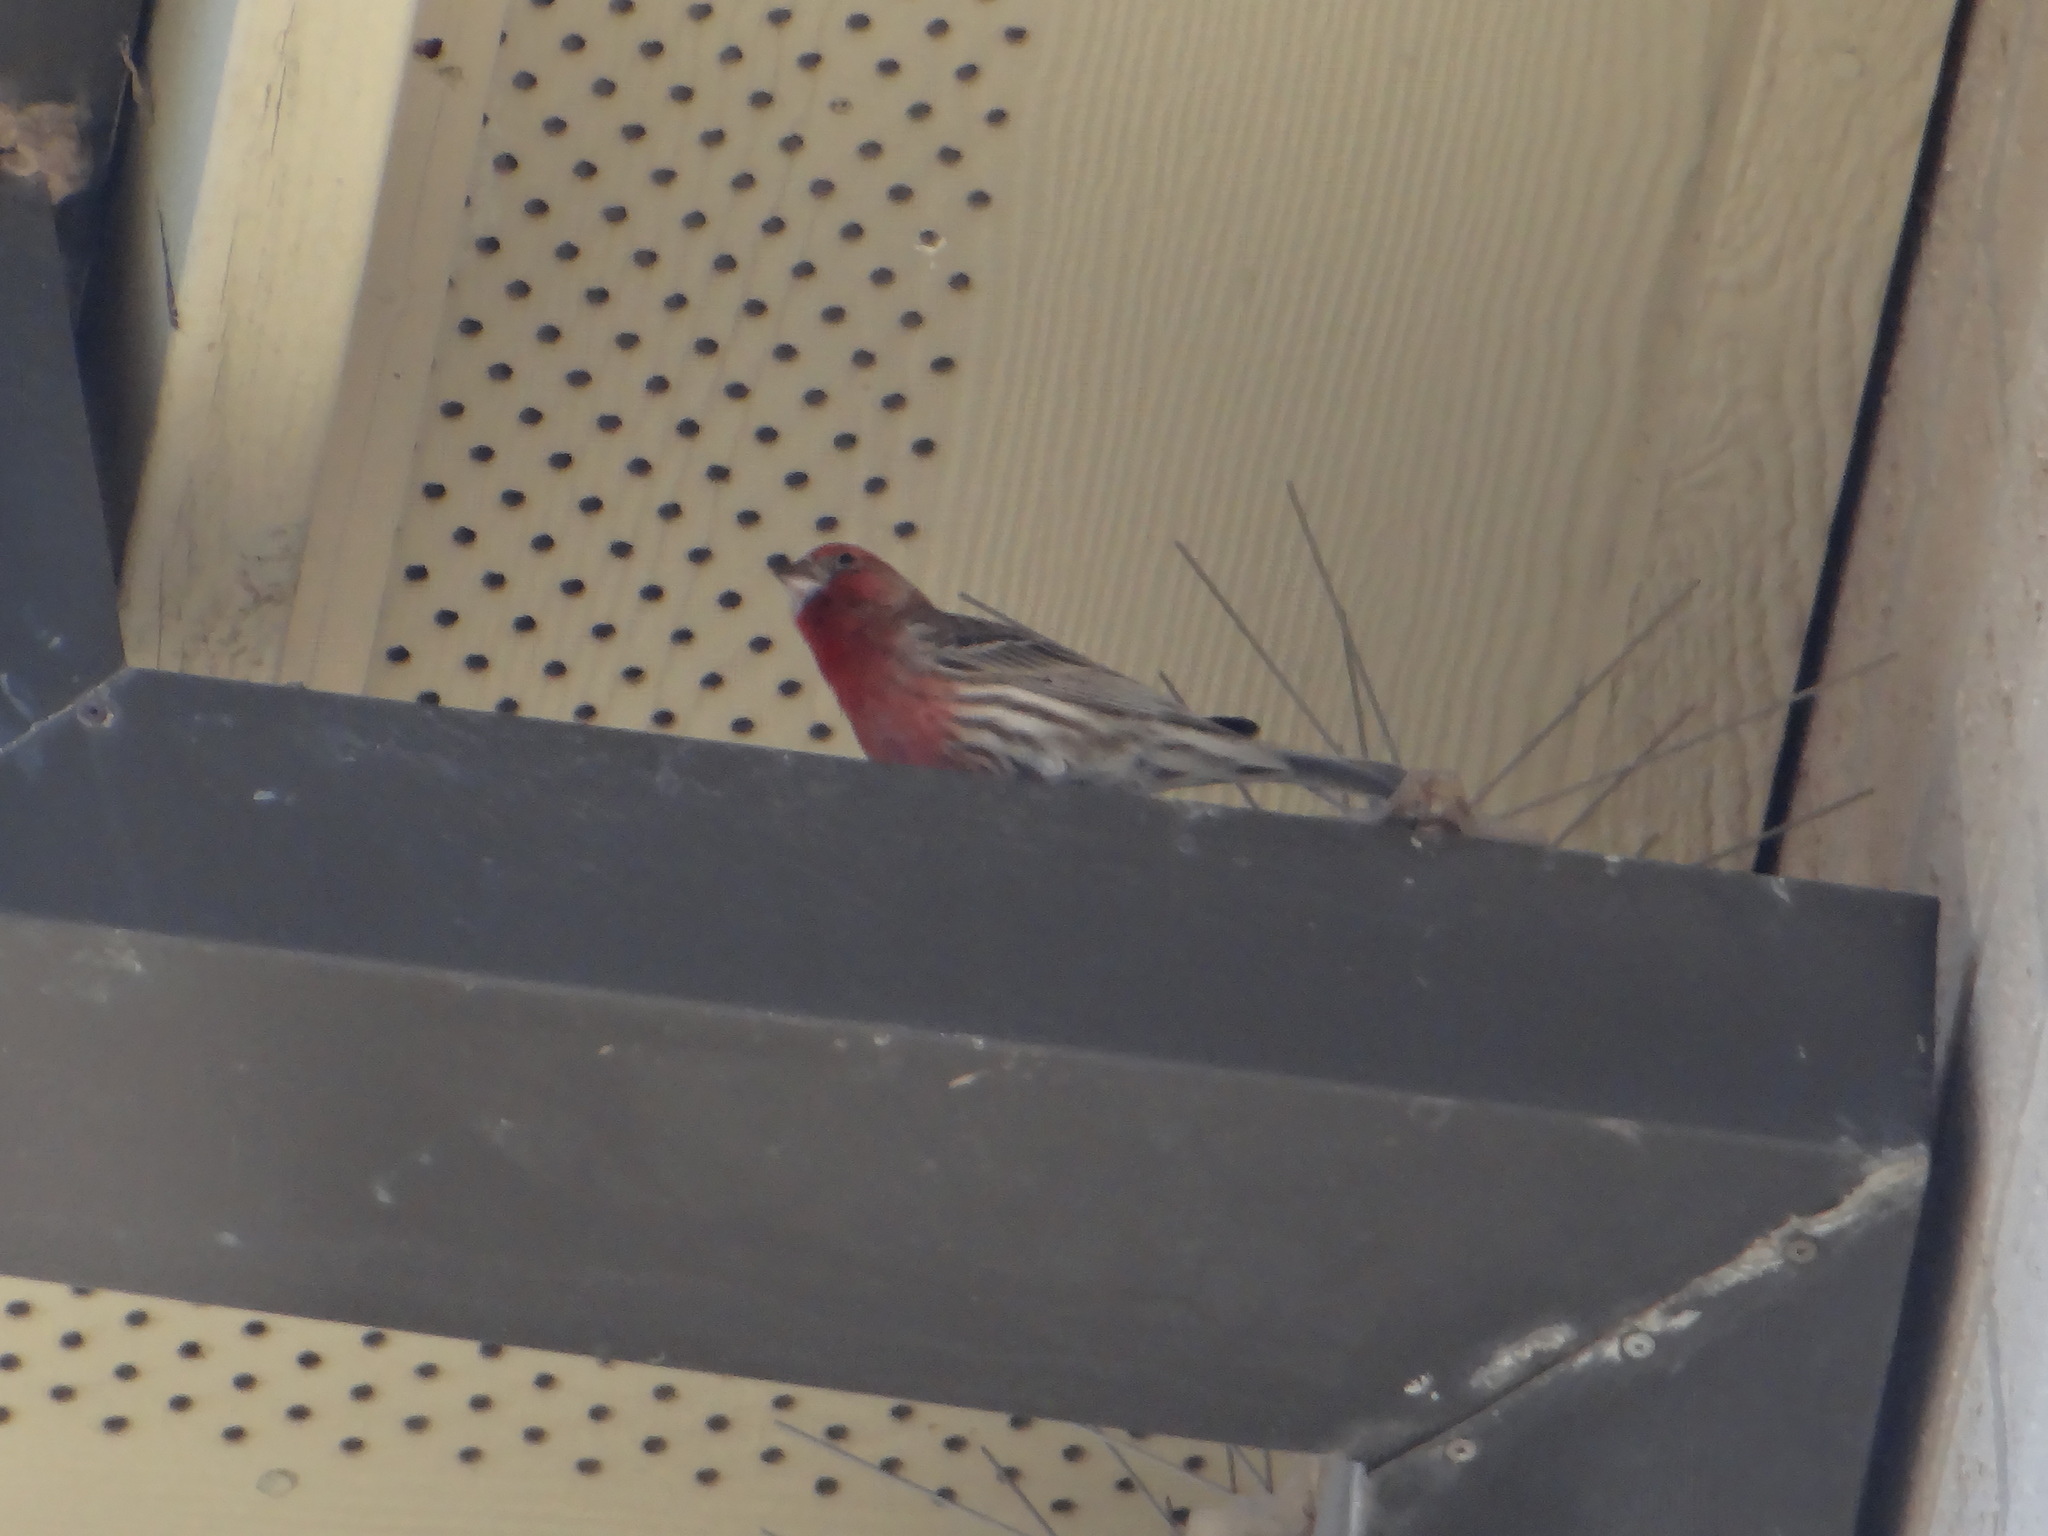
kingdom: Animalia
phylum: Chordata
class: Aves
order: Passeriformes
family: Fringillidae
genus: Haemorhous
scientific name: Haemorhous mexicanus
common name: House finch
